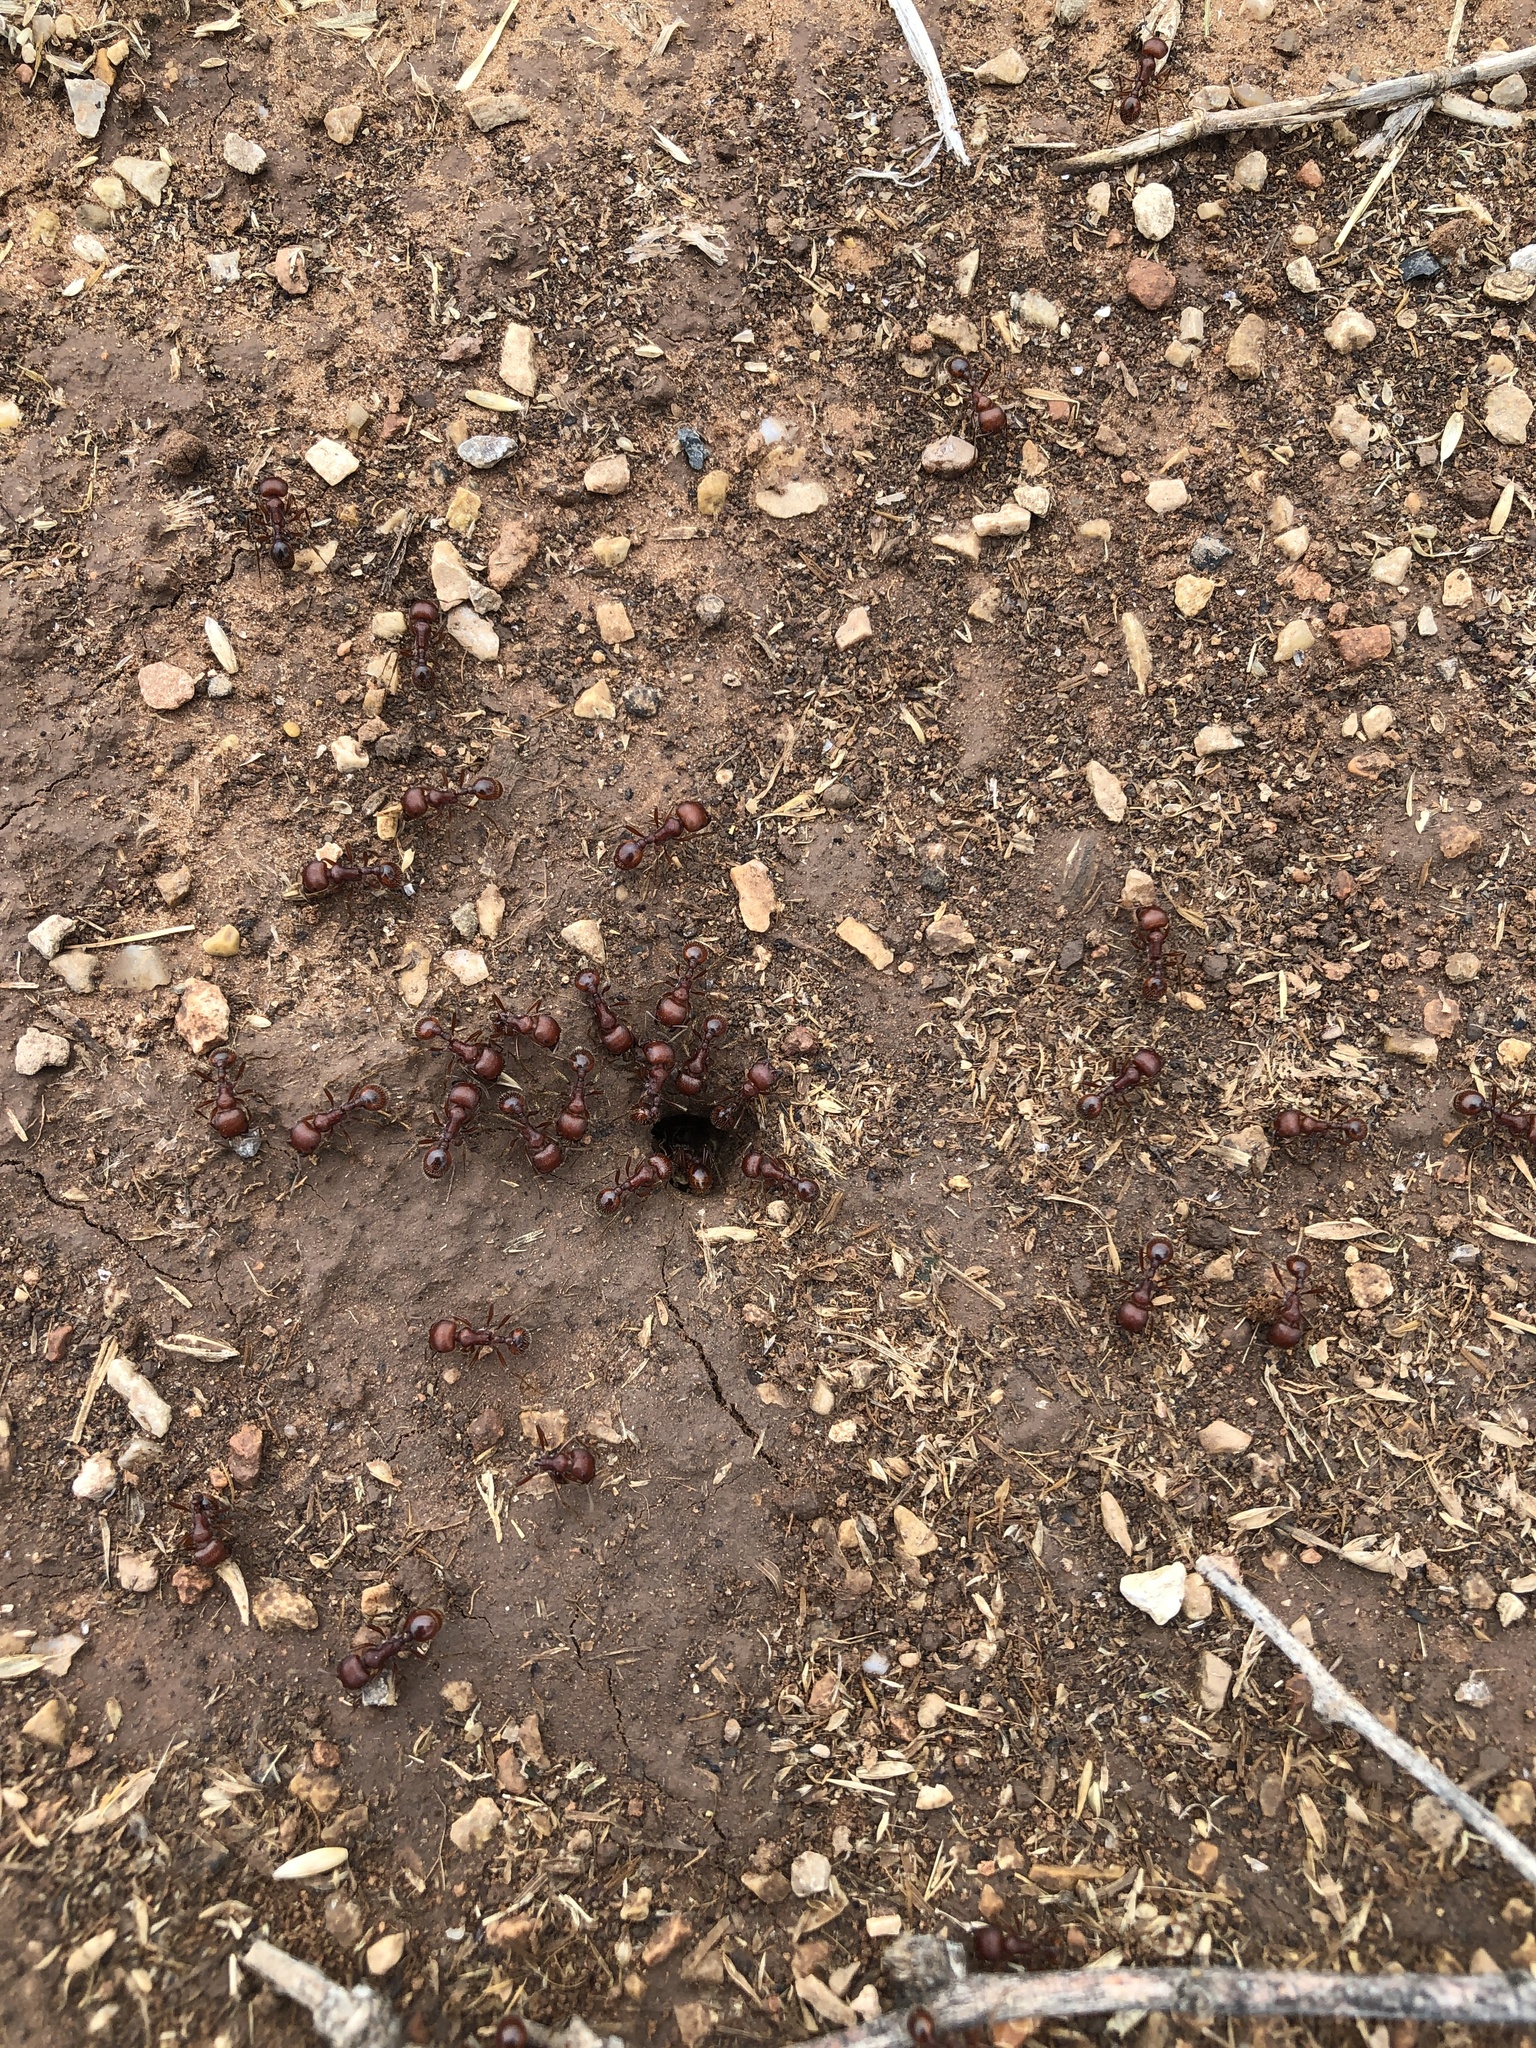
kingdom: Animalia
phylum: Arthropoda
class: Insecta
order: Hymenoptera
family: Formicidae
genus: Pogonomyrmex
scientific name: Pogonomyrmex barbatus
